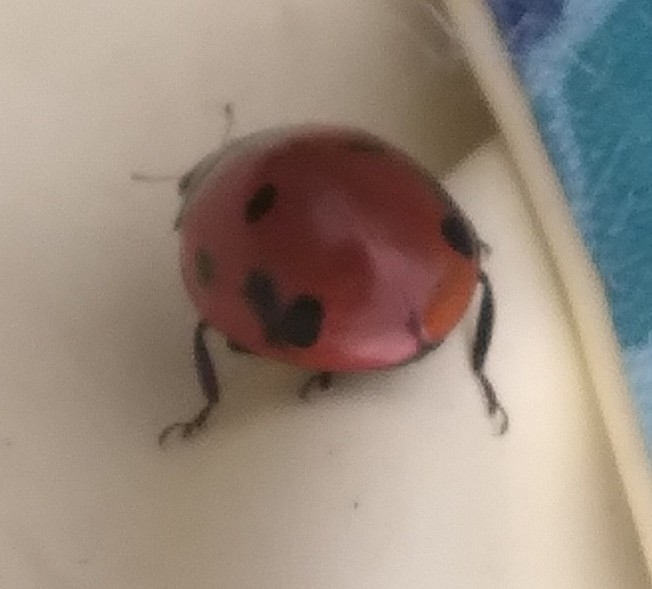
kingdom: Animalia
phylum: Arthropoda
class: Insecta
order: Coleoptera
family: Coccinellidae
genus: Coccinella
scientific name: Coccinella septempunctata
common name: Sevenspotted lady beetle
